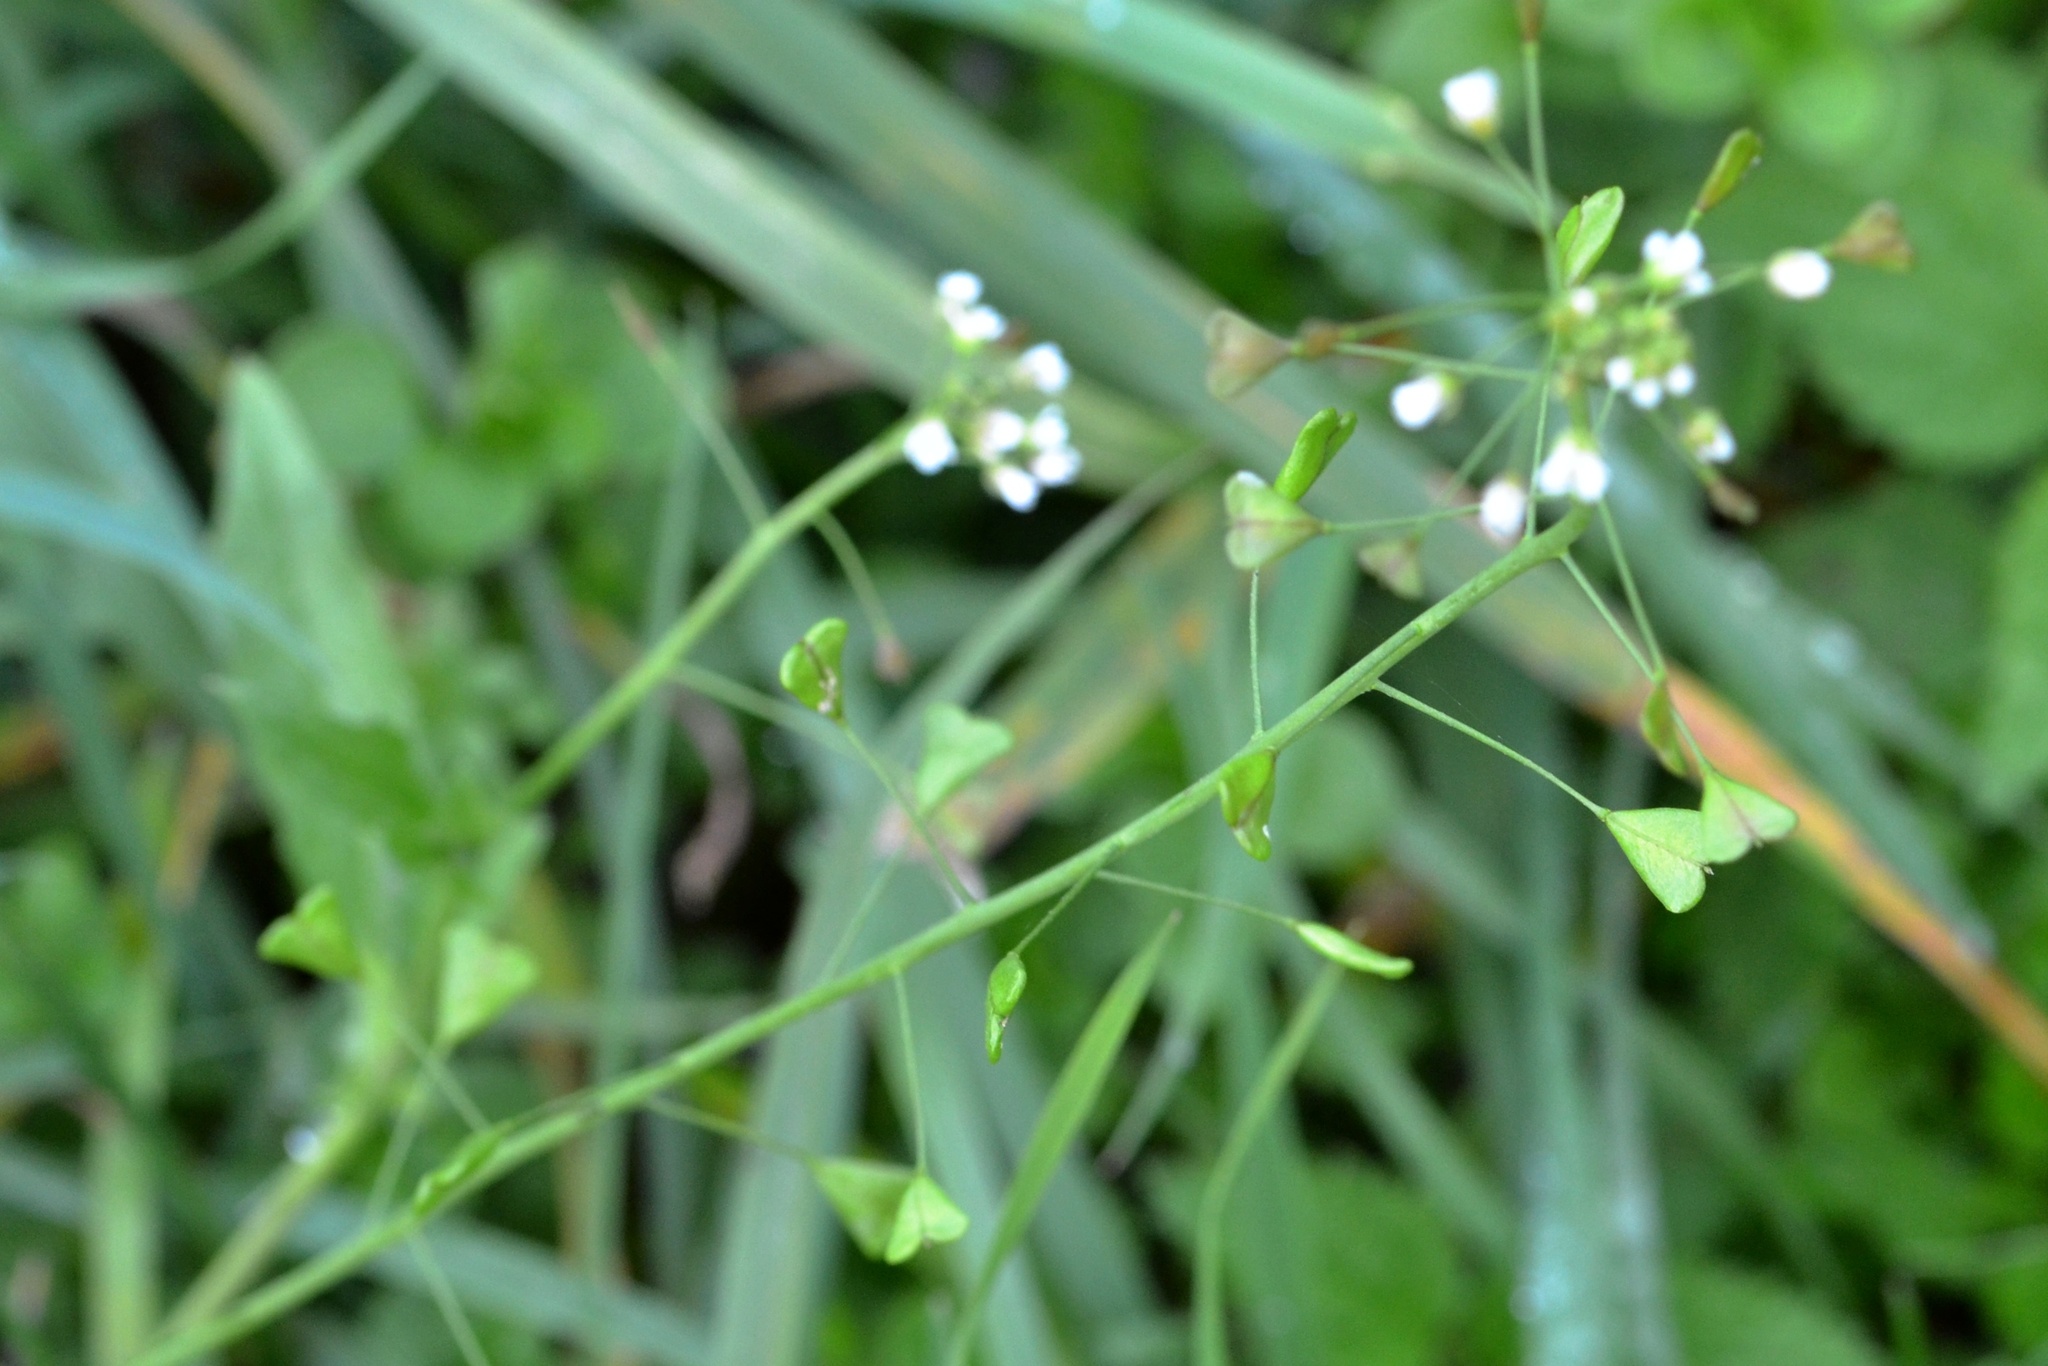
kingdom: Plantae
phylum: Tracheophyta
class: Magnoliopsida
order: Brassicales
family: Brassicaceae
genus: Capsella
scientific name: Capsella bursa-pastoris
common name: Shepherd's purse
